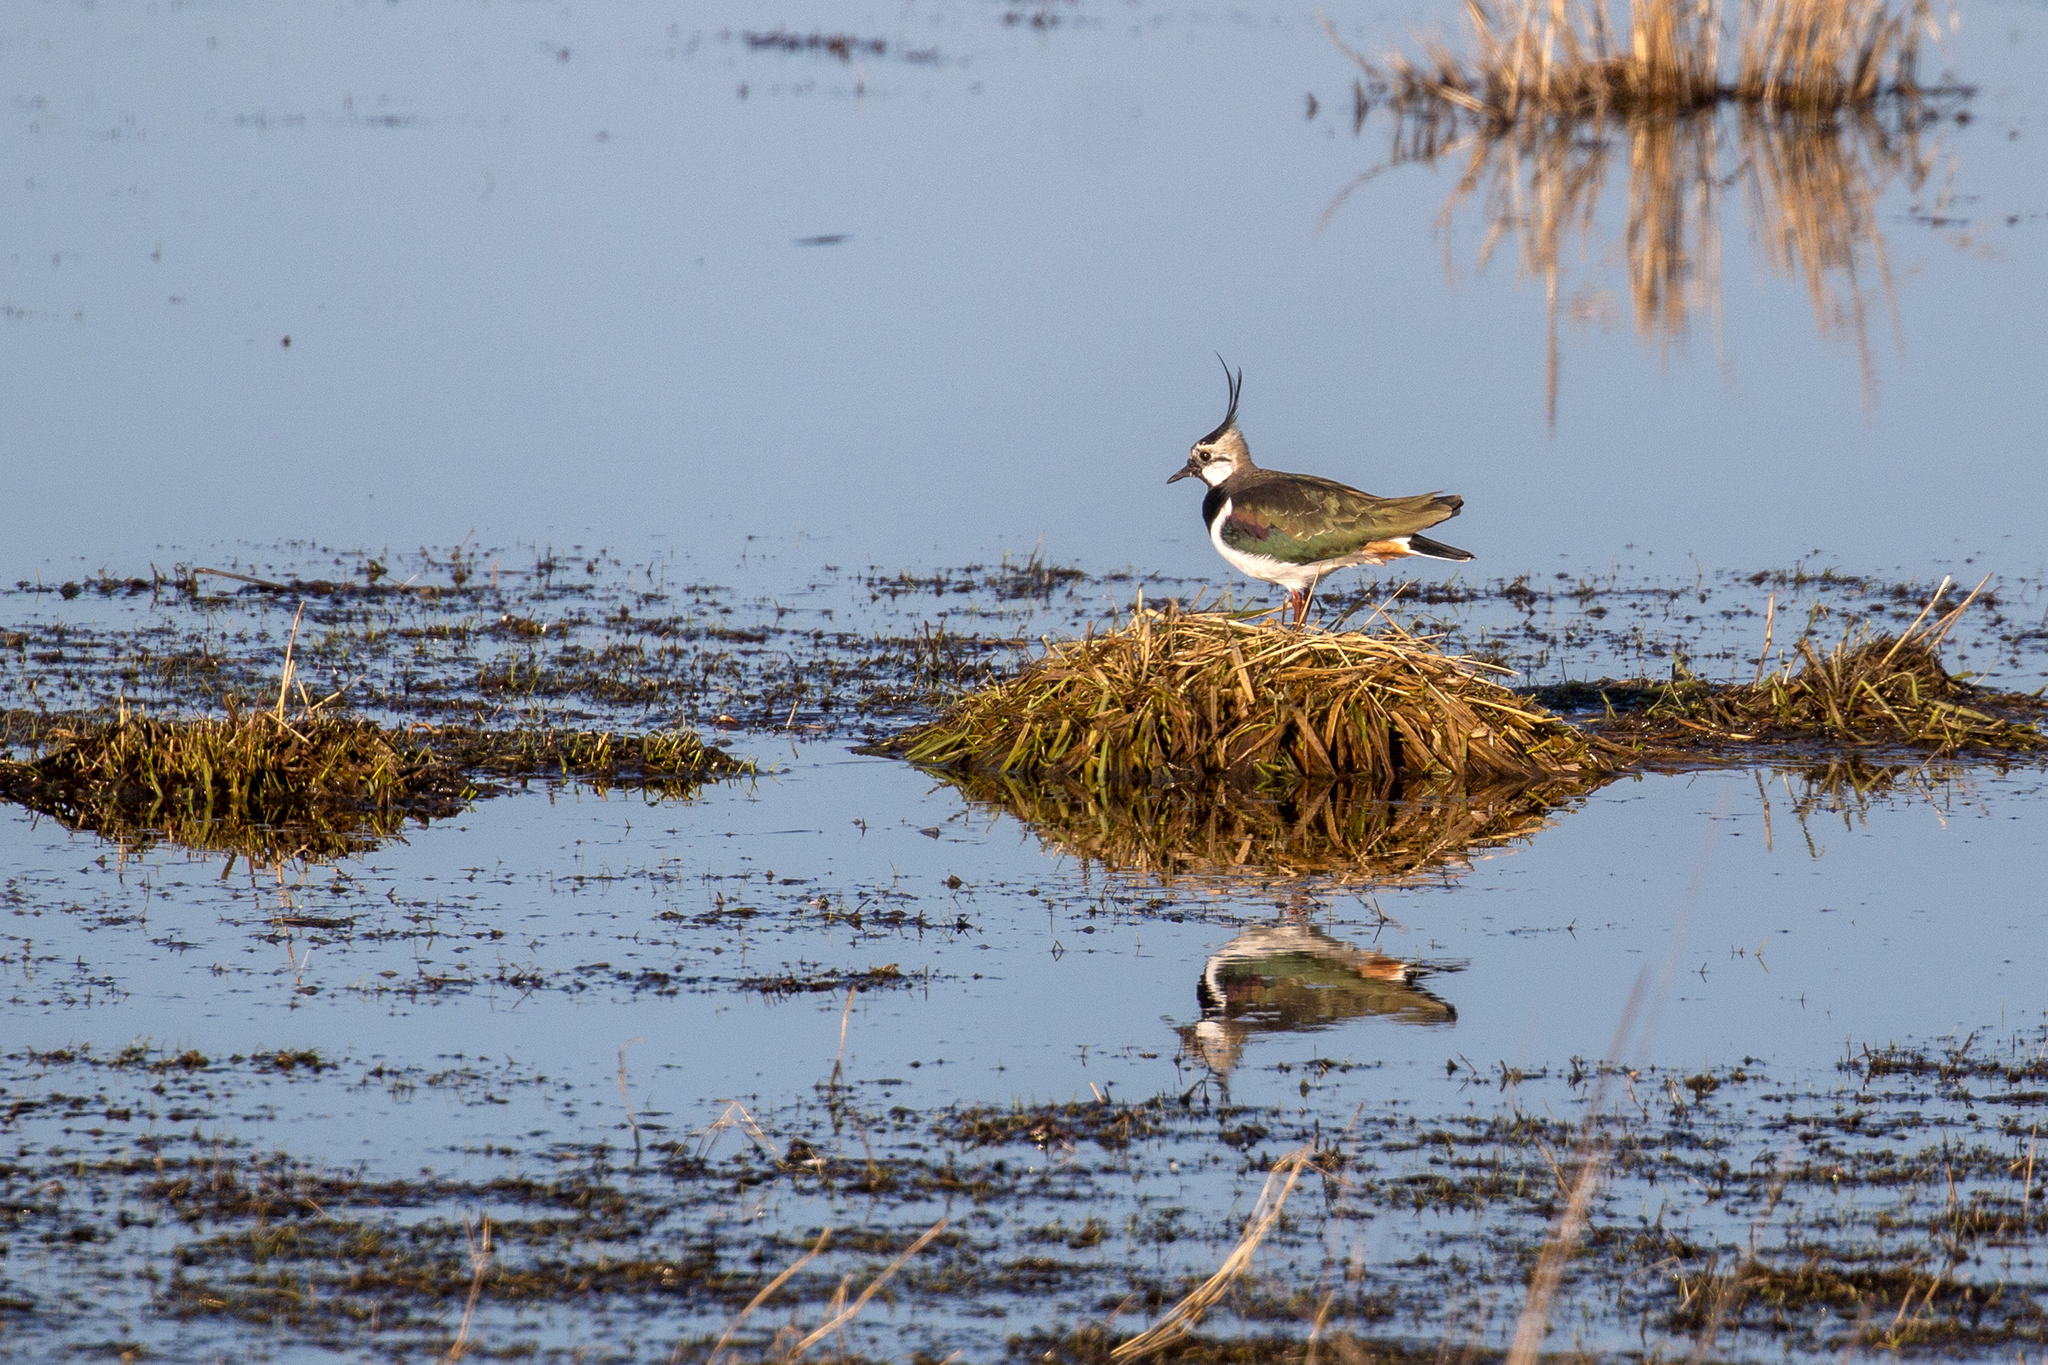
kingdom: Animalia
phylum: Chordata
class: Aves
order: Charadriiformes
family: Charadriidae
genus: Vanellus
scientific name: Vanellus vanellus
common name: Northern lapwing
